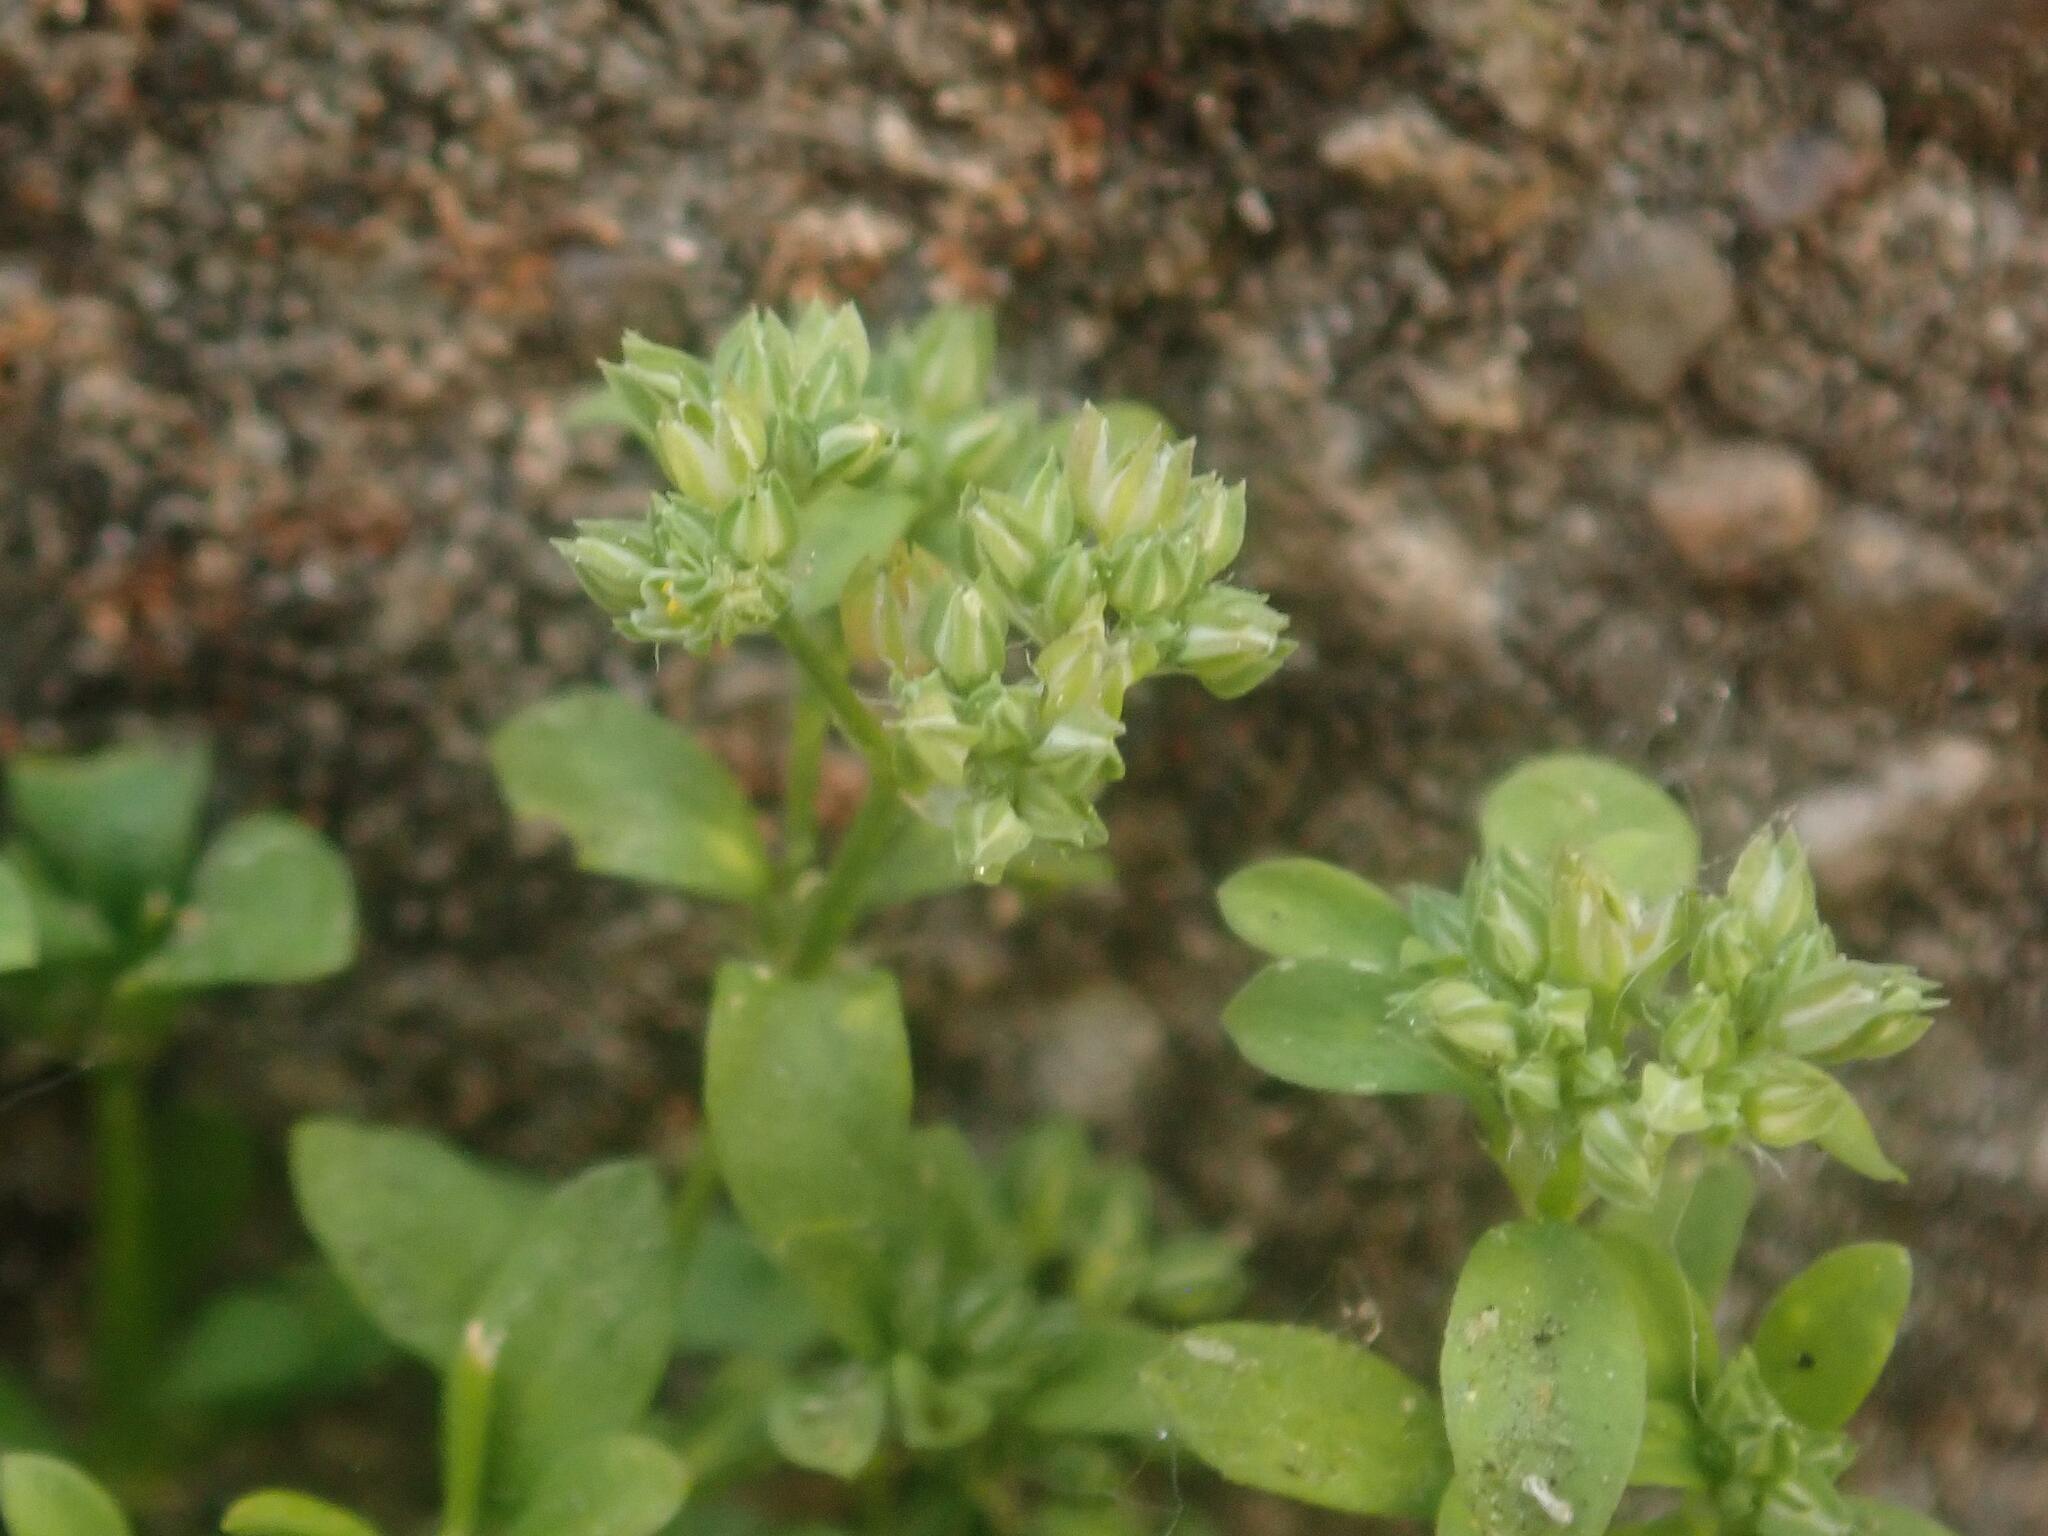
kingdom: Plantae
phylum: Tracheophyta
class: Magnoliopsida
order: Caryophyllales
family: Caryophyllaceae
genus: Polycarpon
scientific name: Polycarpon tetraphyllum
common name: Four-leaved all-seed
